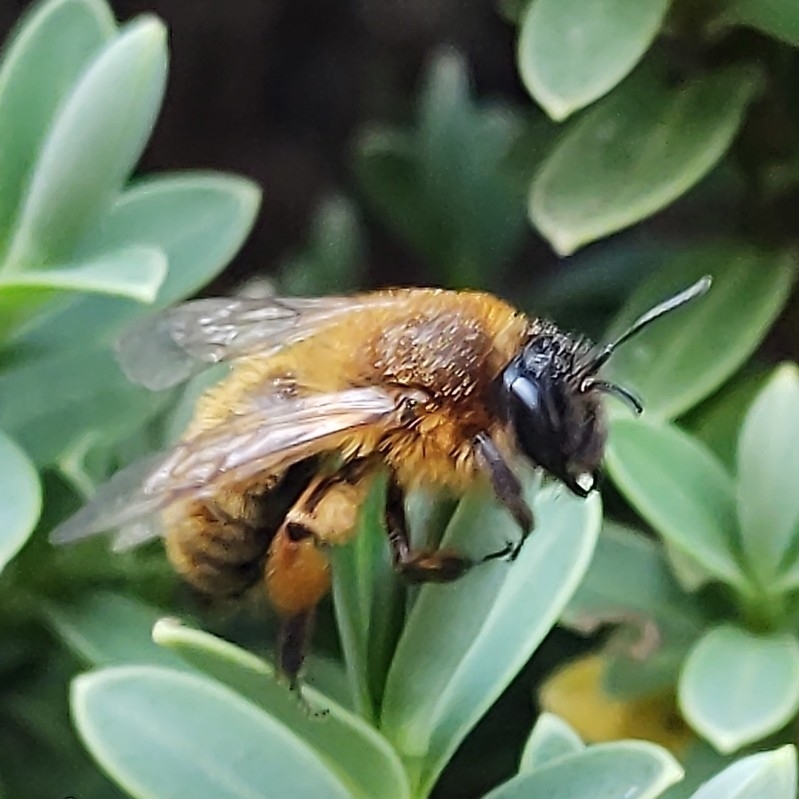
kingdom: Animalia
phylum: Arthropoda
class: Insecta
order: Hymenoptera
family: Andrenidae
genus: Andrena
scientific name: Andrena nigroaenea
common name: Buffish mining bee
